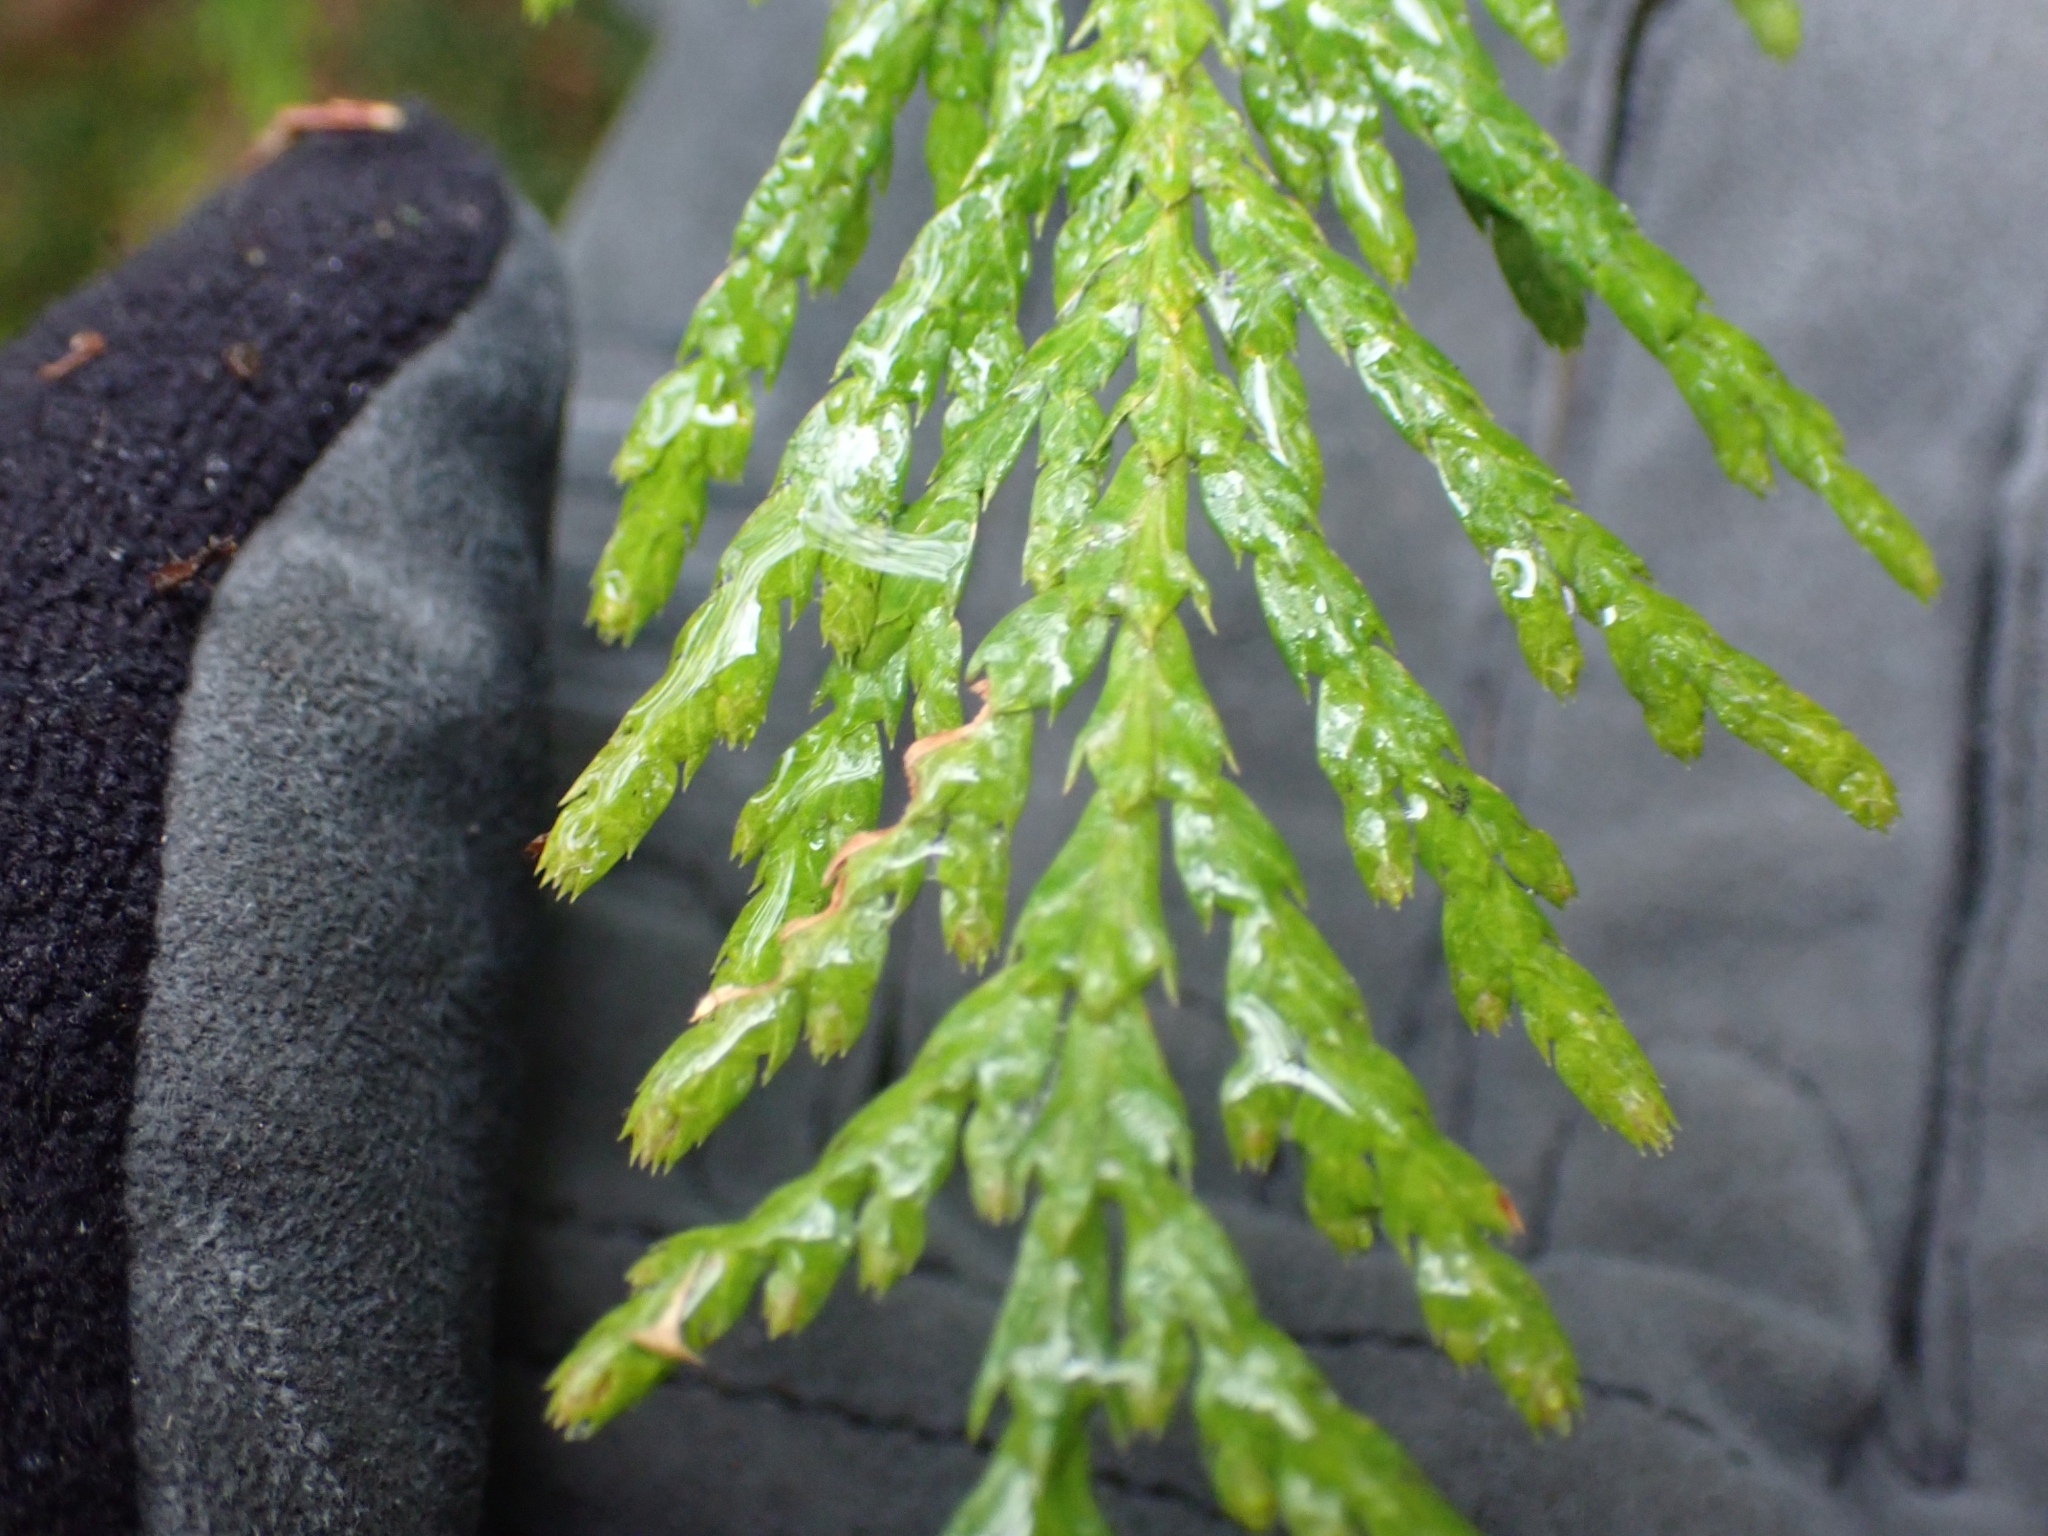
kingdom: Plantae
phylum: Tracheophyta
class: Pinopsida
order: Pinales
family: Cupressaceae
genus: Thuja
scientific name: Thuja plicata
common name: Western red-cedar
